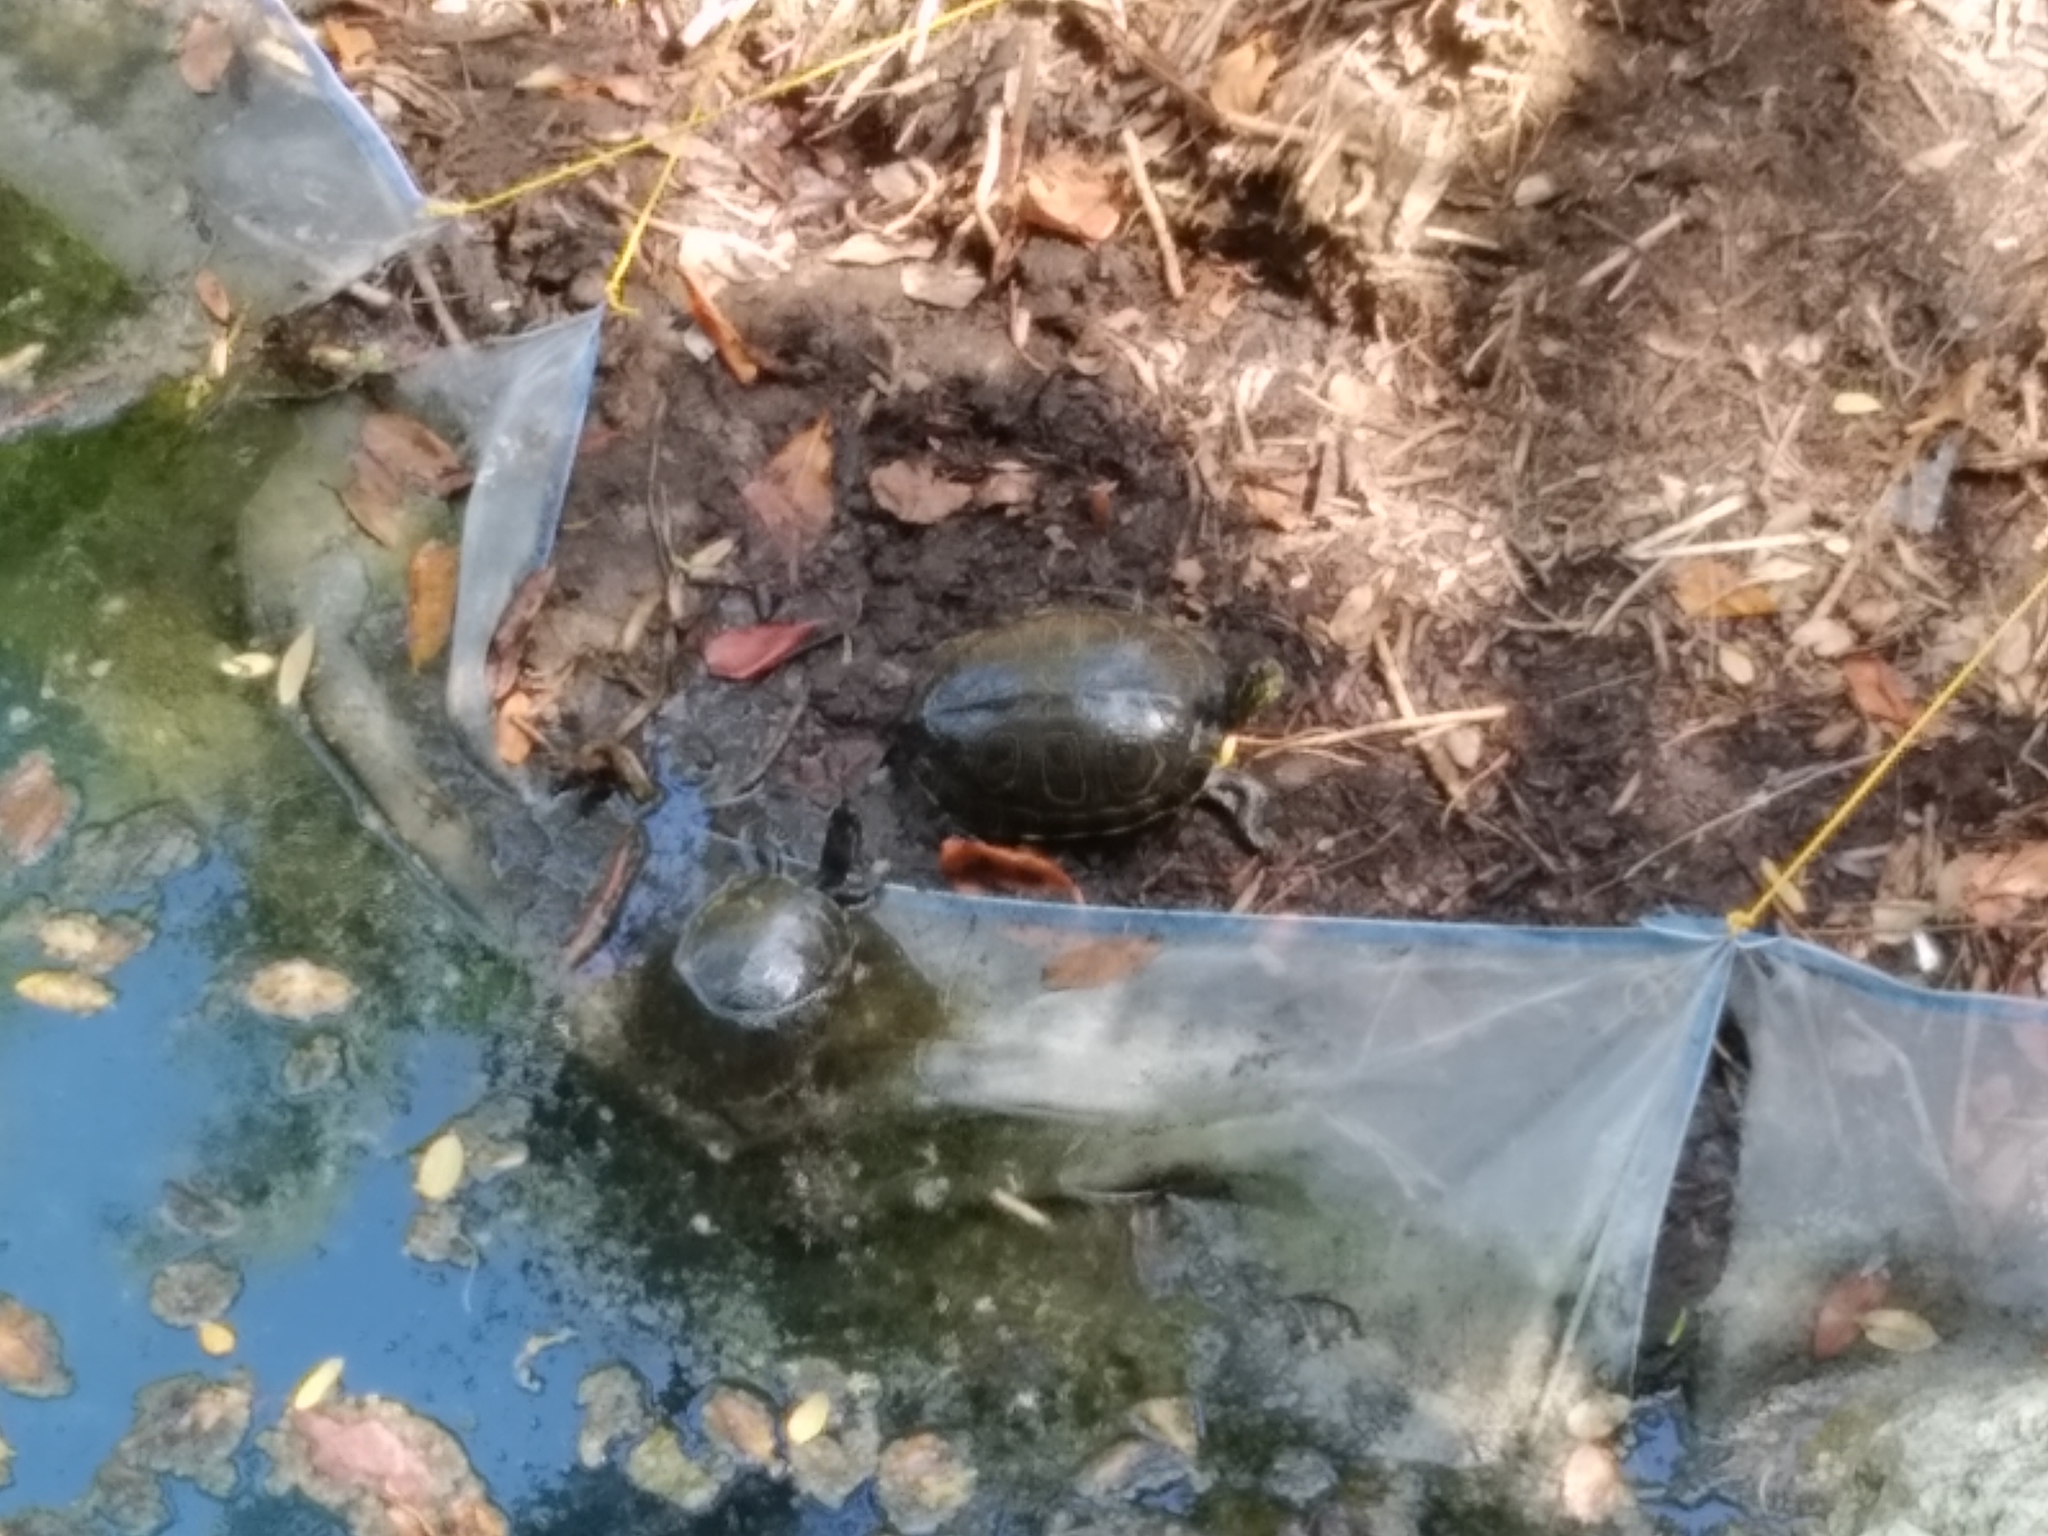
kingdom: Animalia
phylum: Chordata
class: Testudines
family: Emydidae
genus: Trachemys
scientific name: Trachemys venusta
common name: Mesoamerican slider
